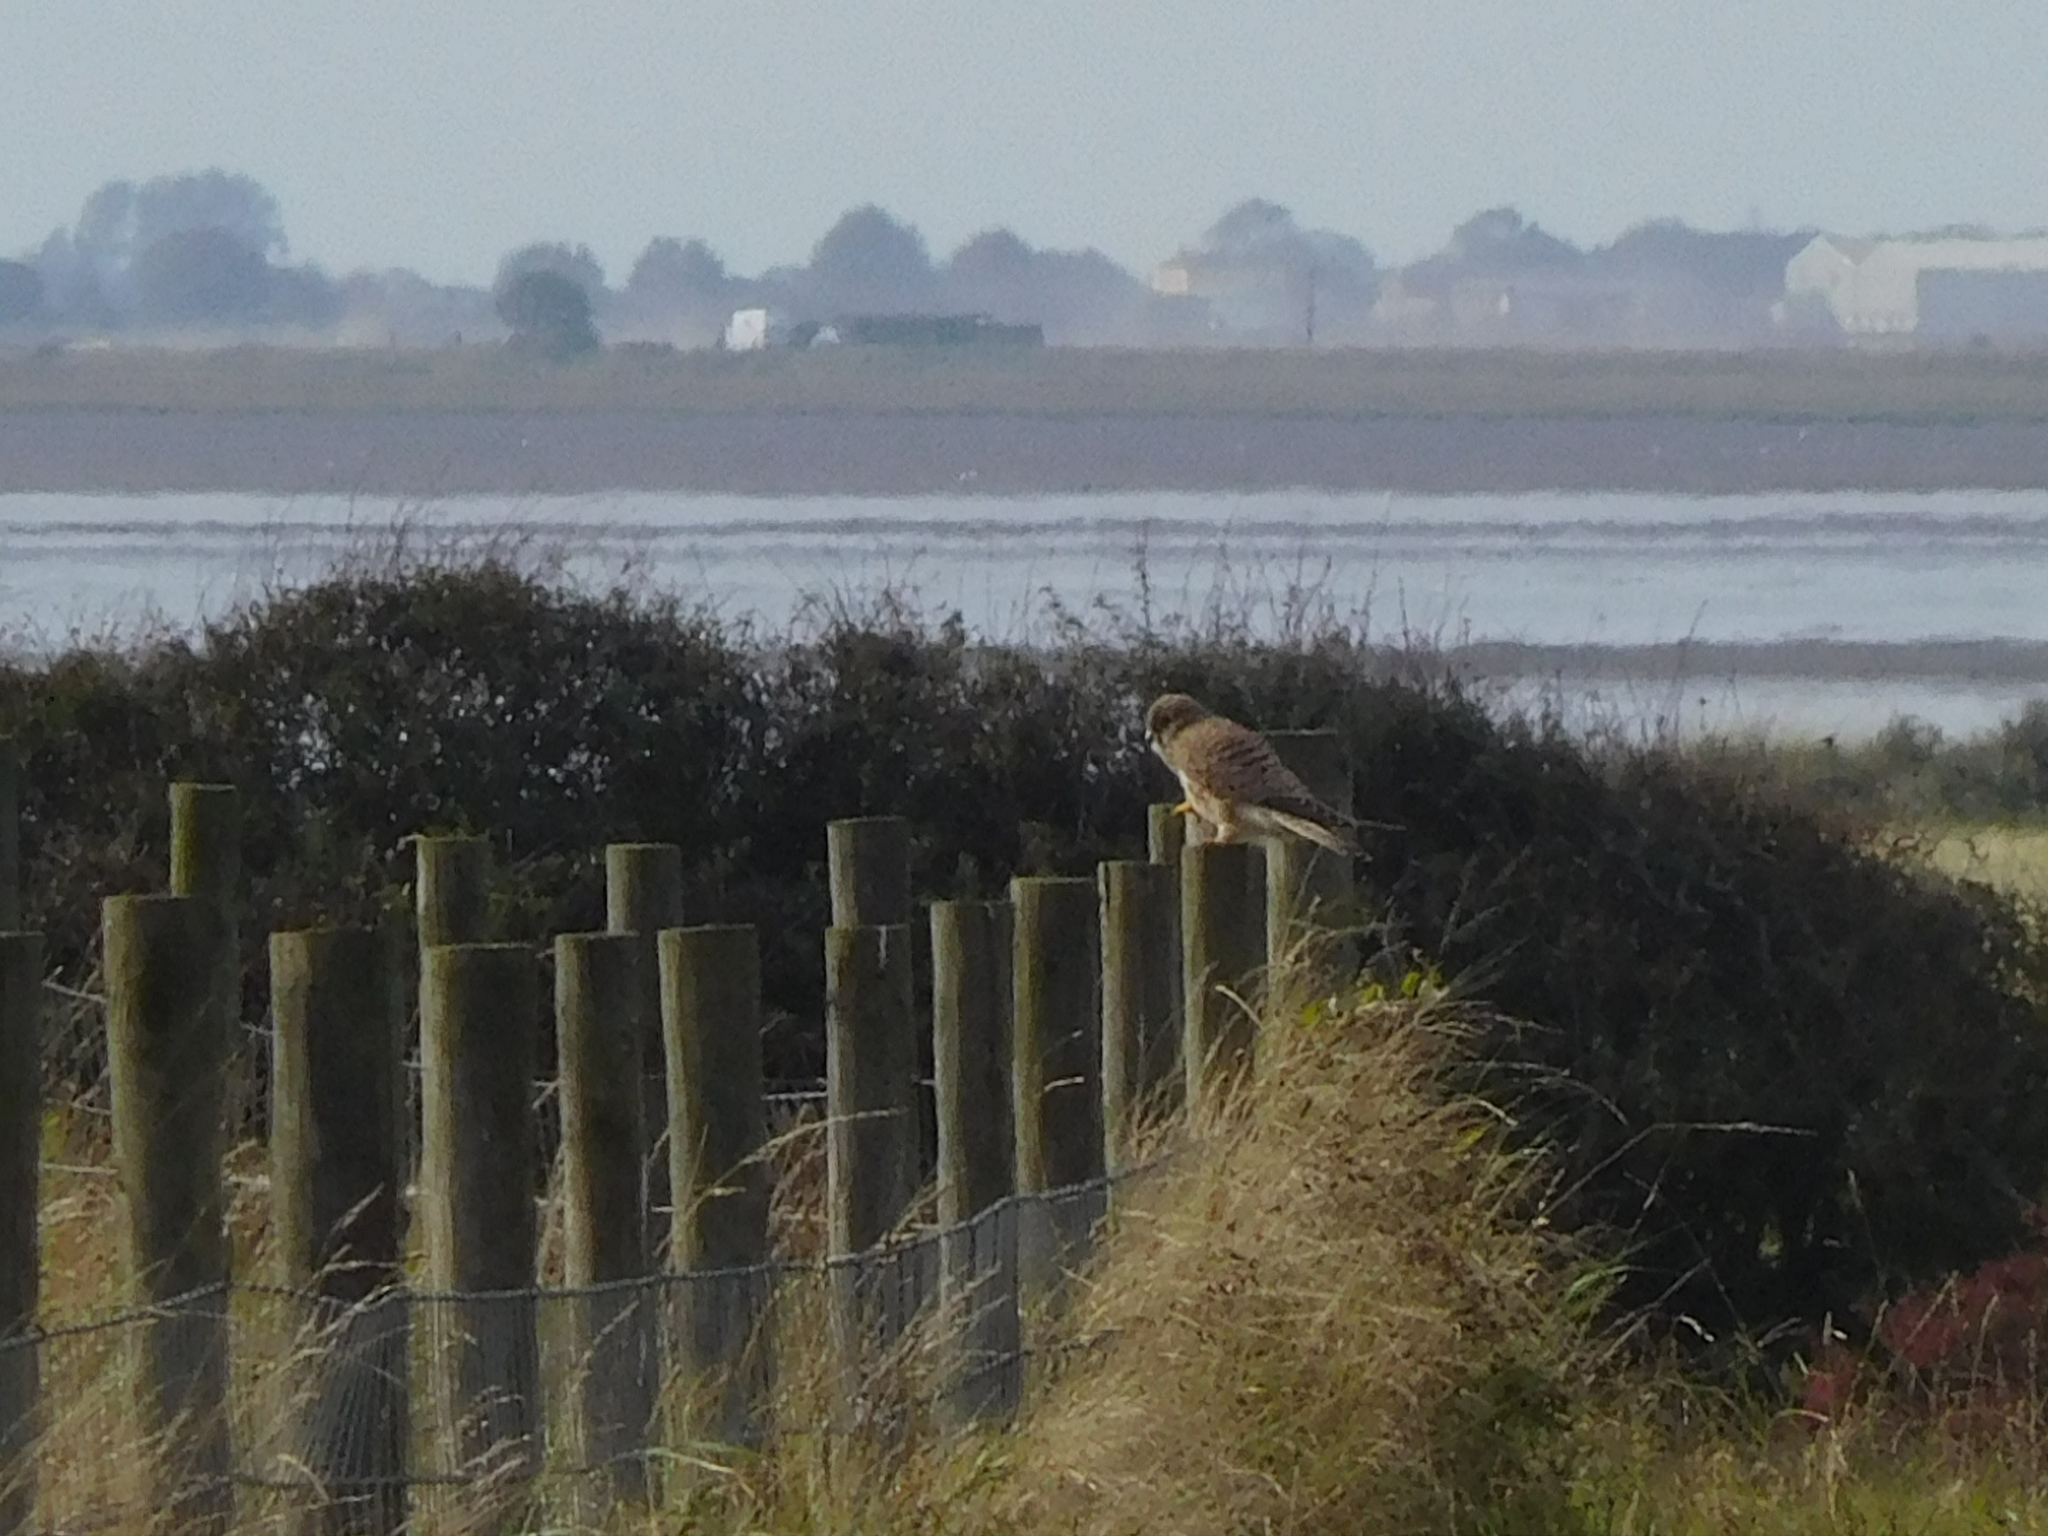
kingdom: Animalia
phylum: Chordata
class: Aves
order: Falconiformes
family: Falconidae
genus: Falco
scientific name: Falco tinnunculus
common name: Common kestrel
